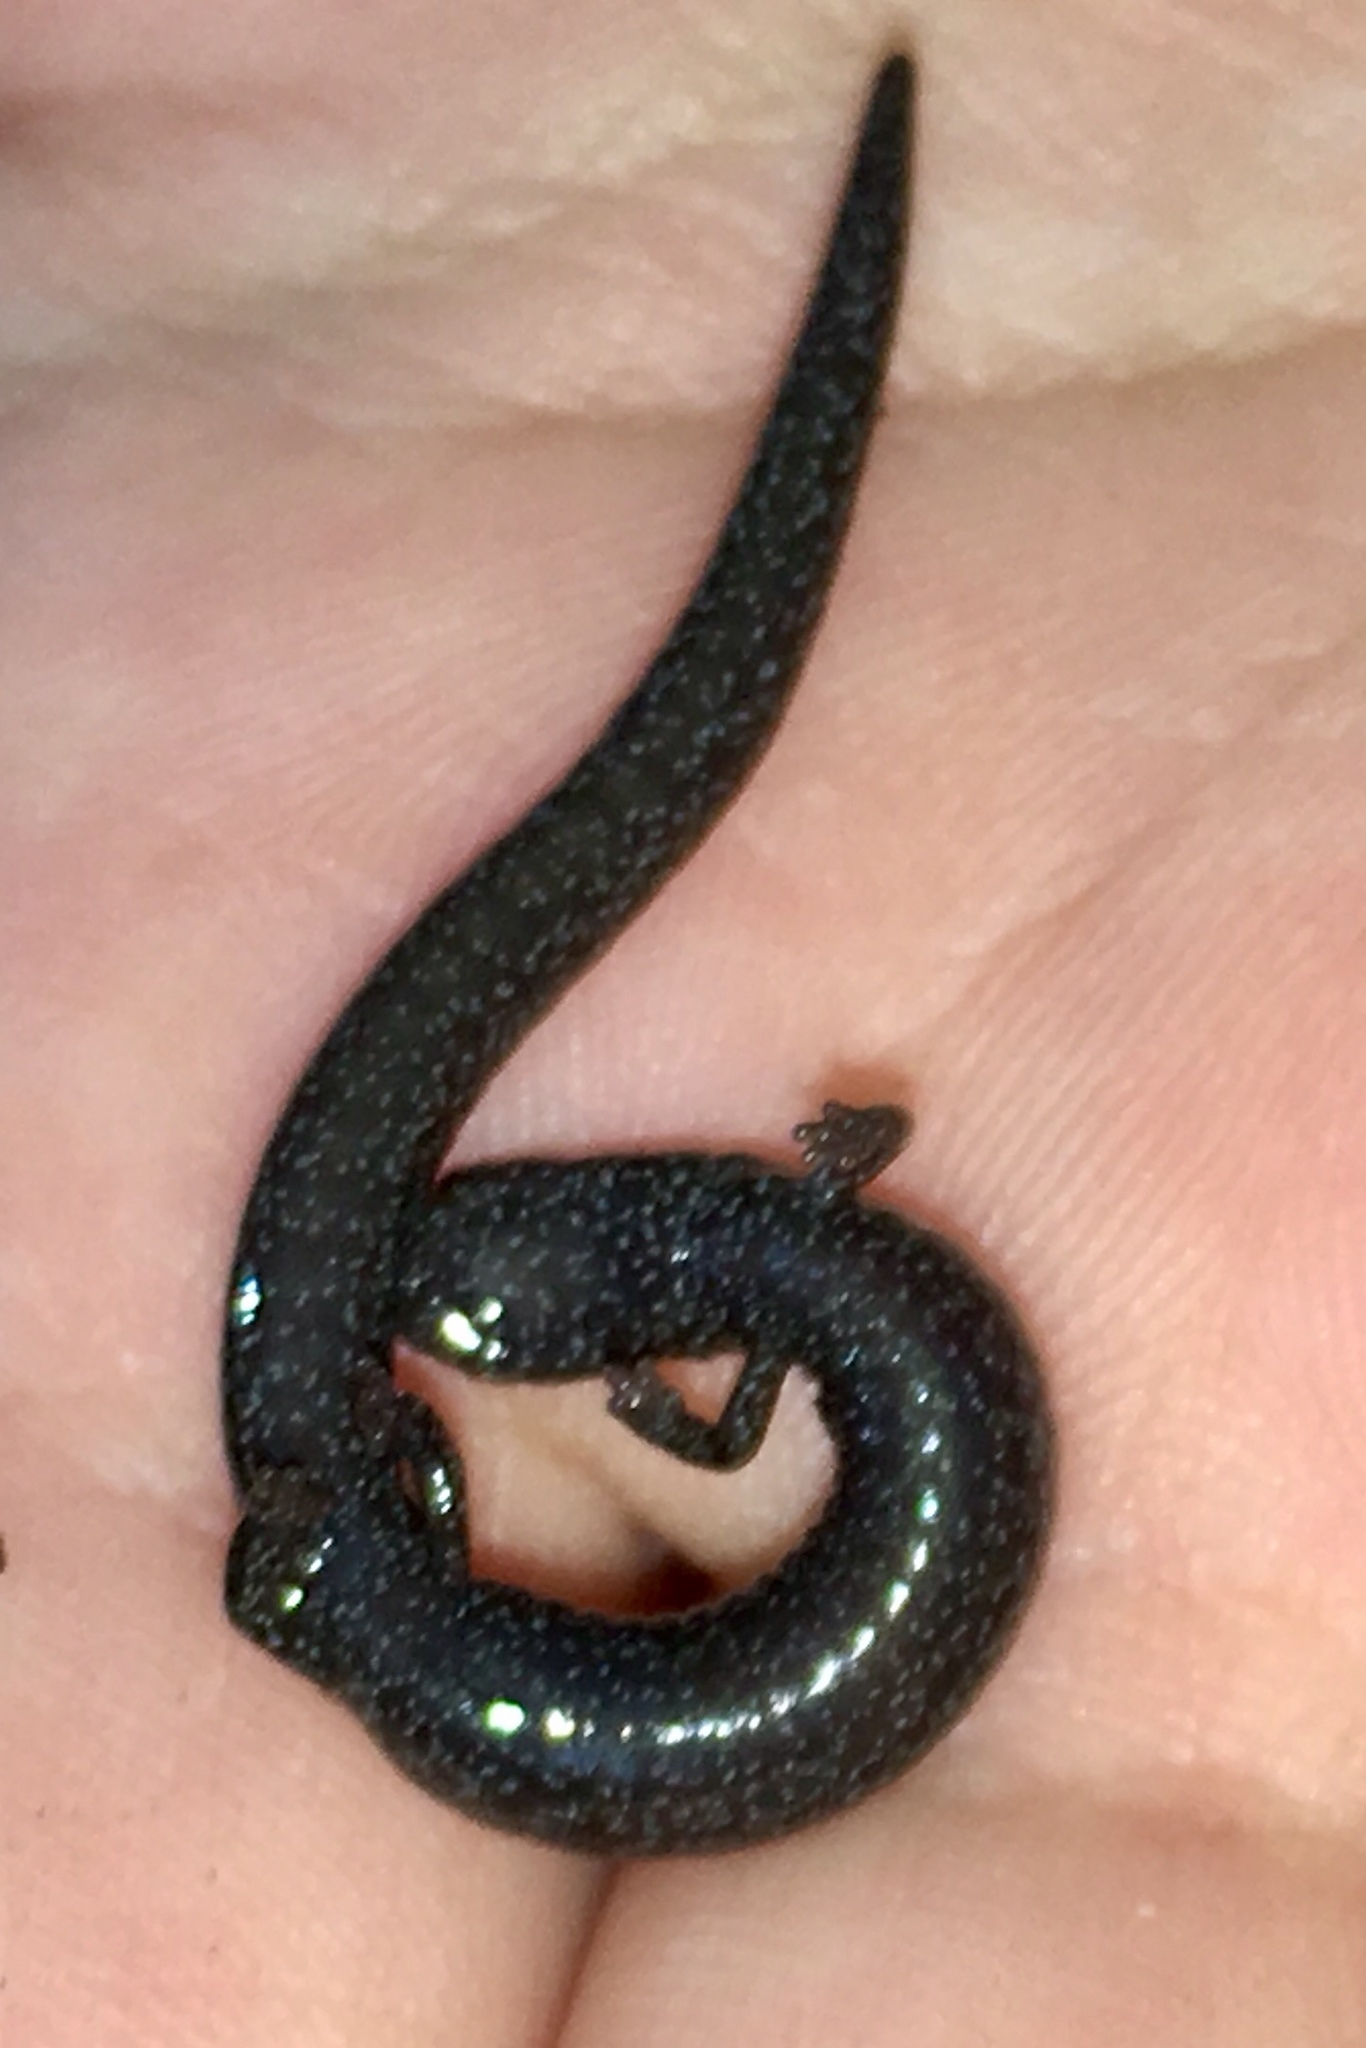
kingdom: Animalia
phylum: Chordata
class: Amphibia
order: Caudata
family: Plethodontidae
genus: Batrachoseps
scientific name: Batrachoseps incognitus
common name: San simeon slender salamander
